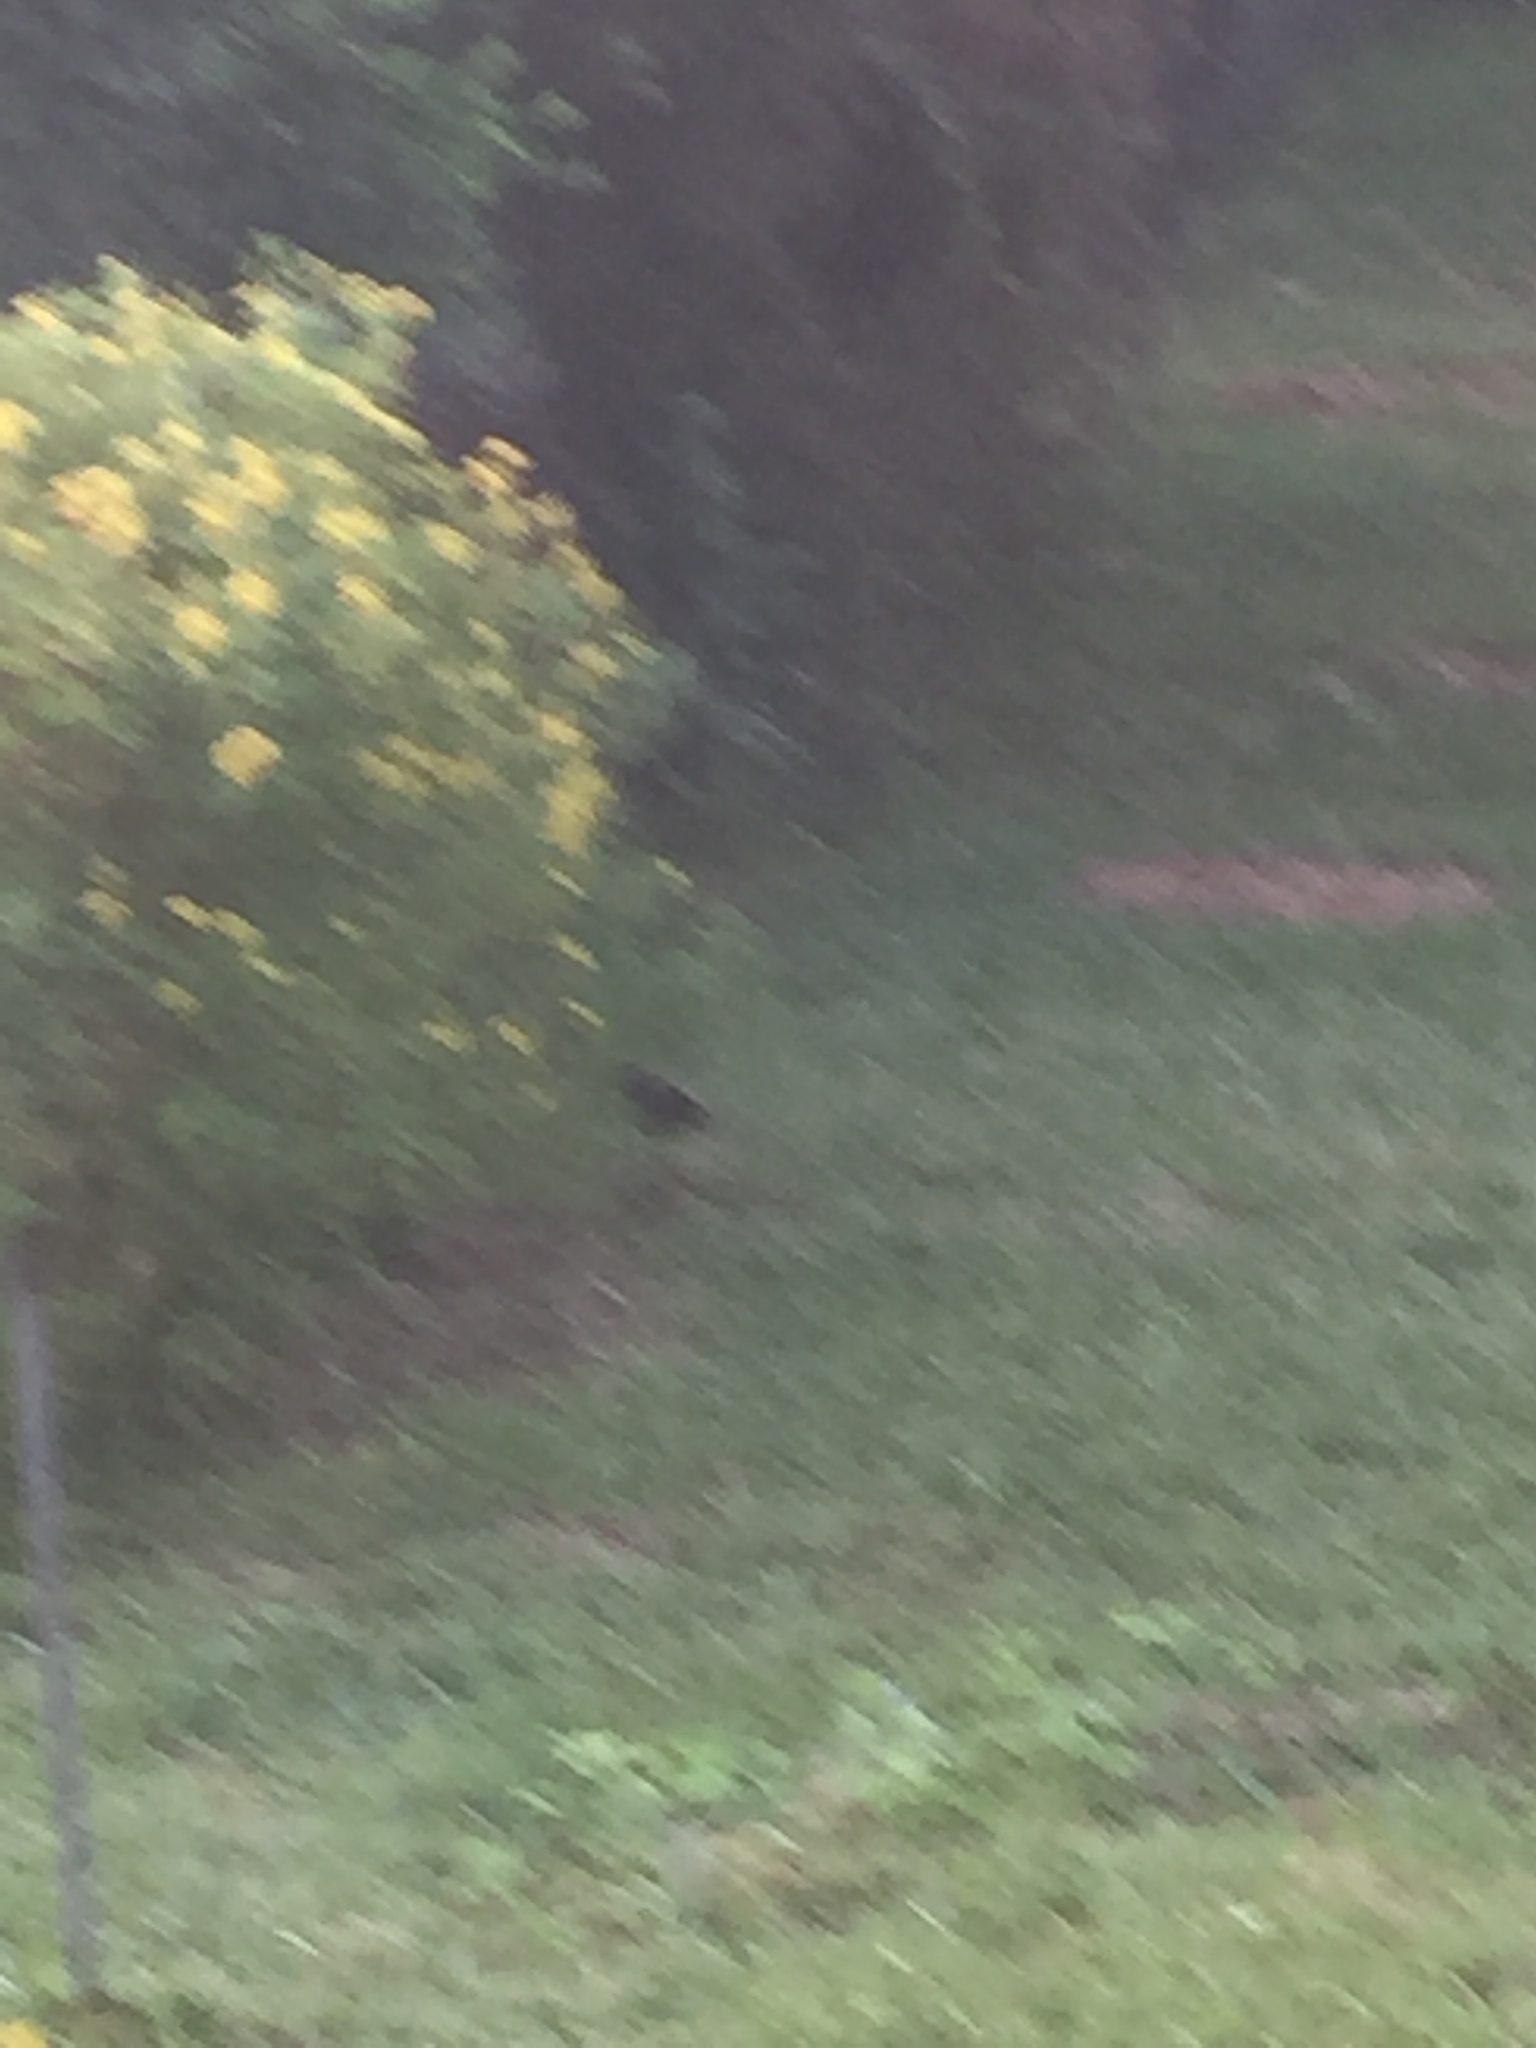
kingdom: Animalia
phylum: Chordata
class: Aves
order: Gruiformes
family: Rallidae
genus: Amaurornis
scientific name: Amaurornis phoenicurus
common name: White-breasted waterhen
